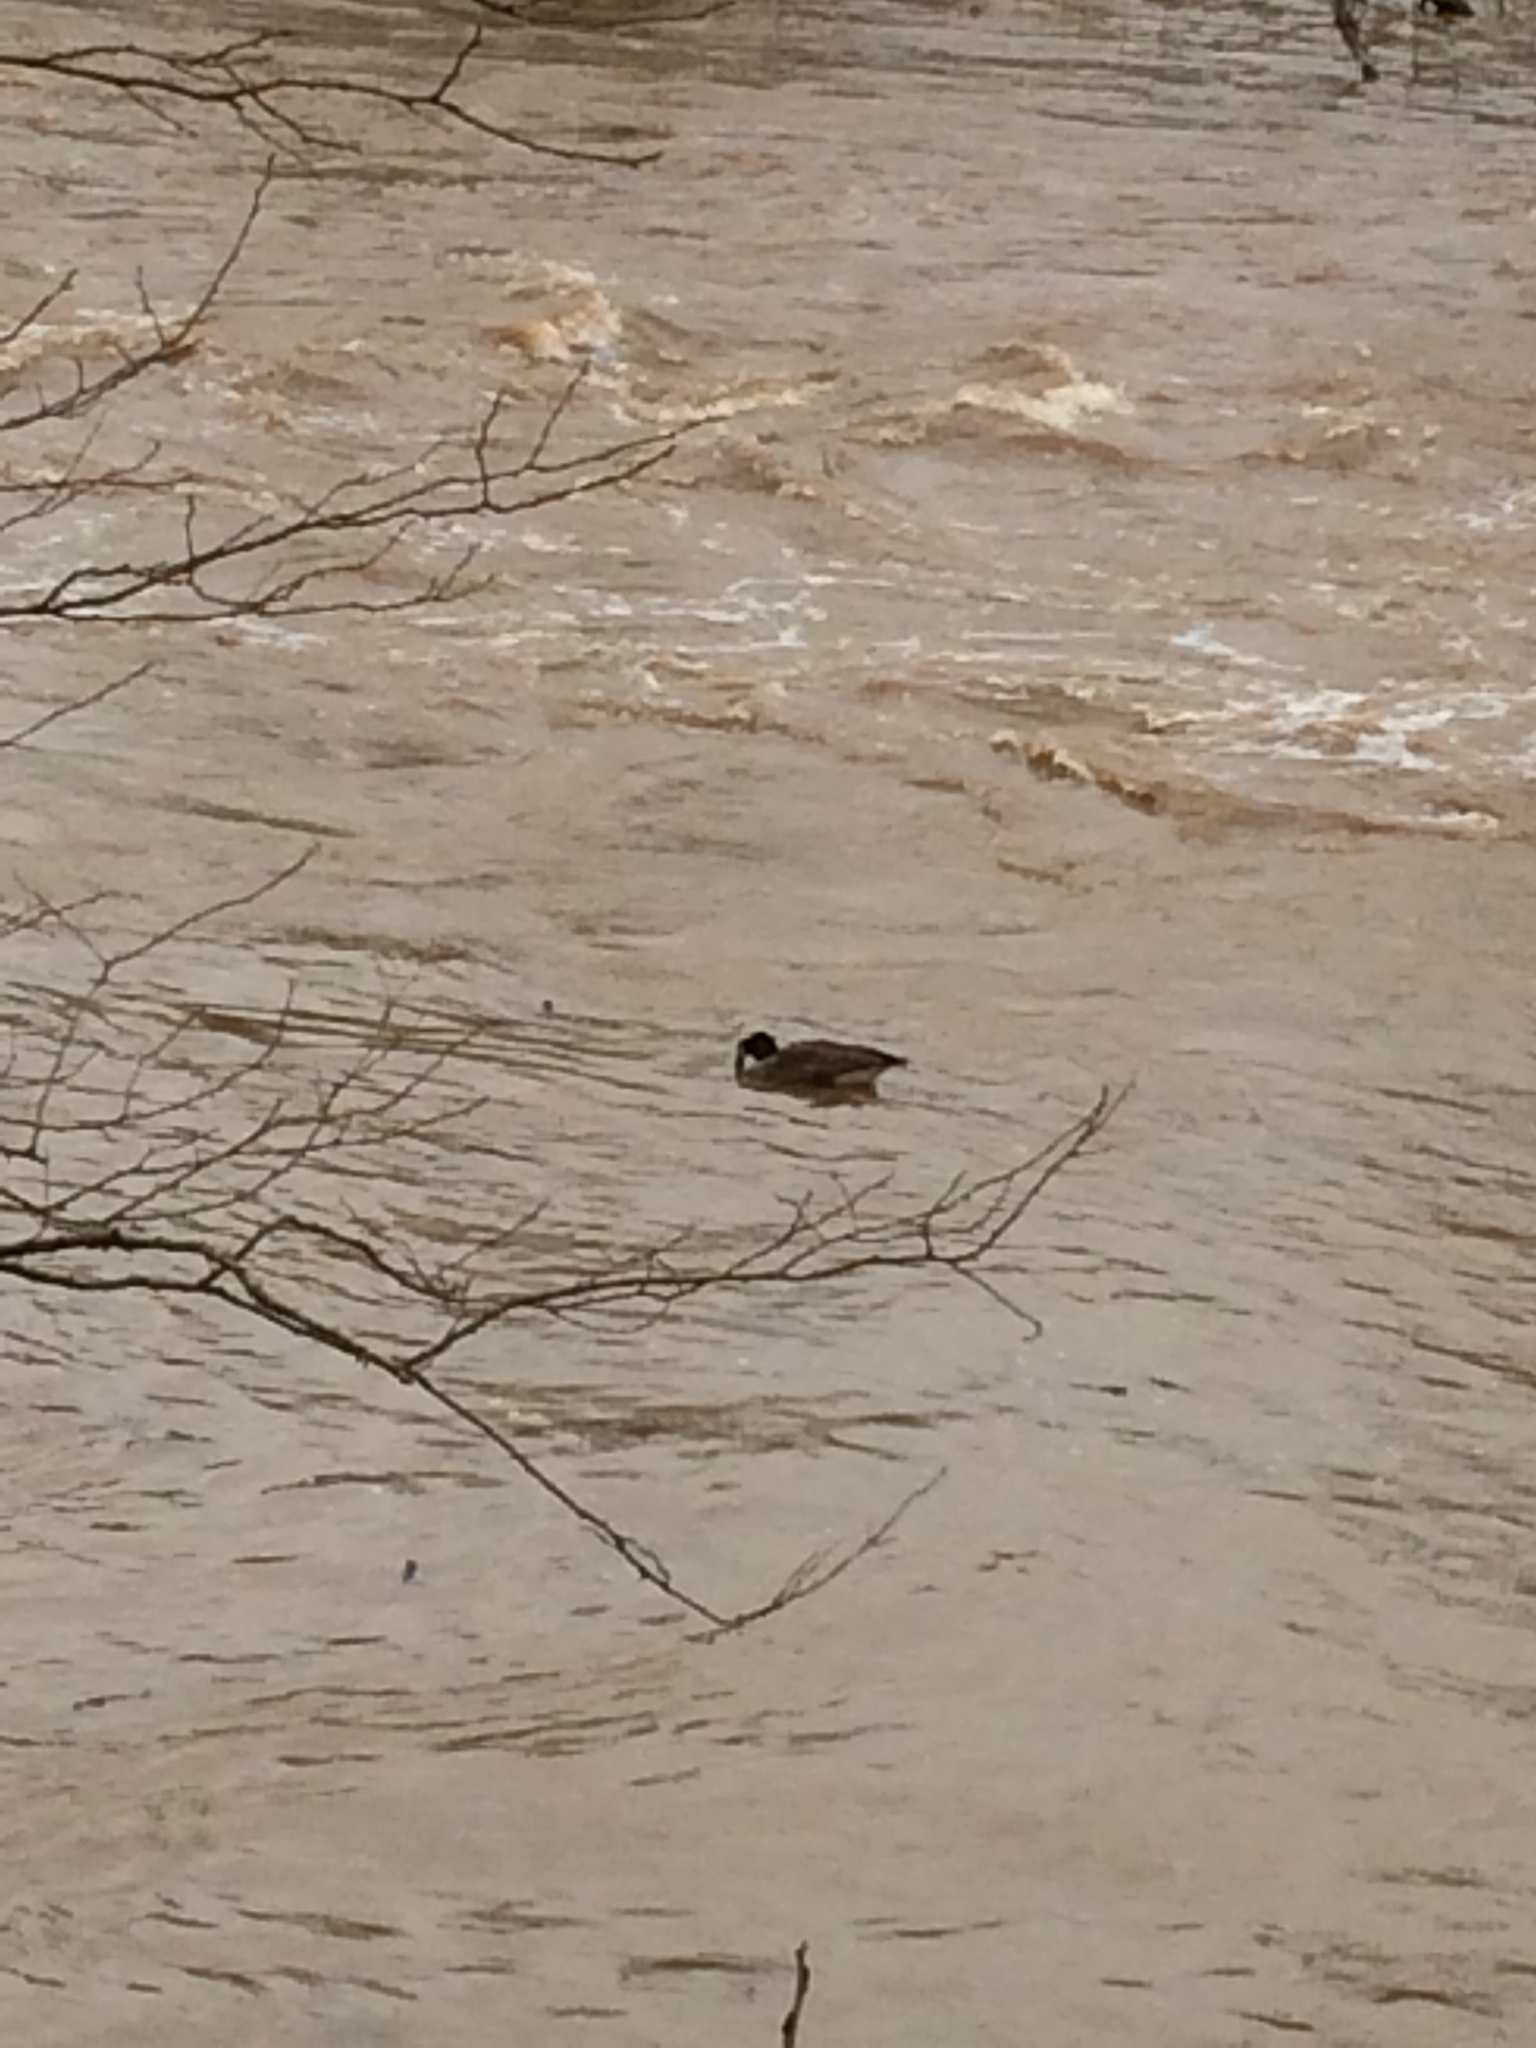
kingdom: Animalia
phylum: Chordata
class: Aves
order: Anseriformes
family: Anatidae
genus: Branta
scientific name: Branta canadensis
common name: Canada goose
